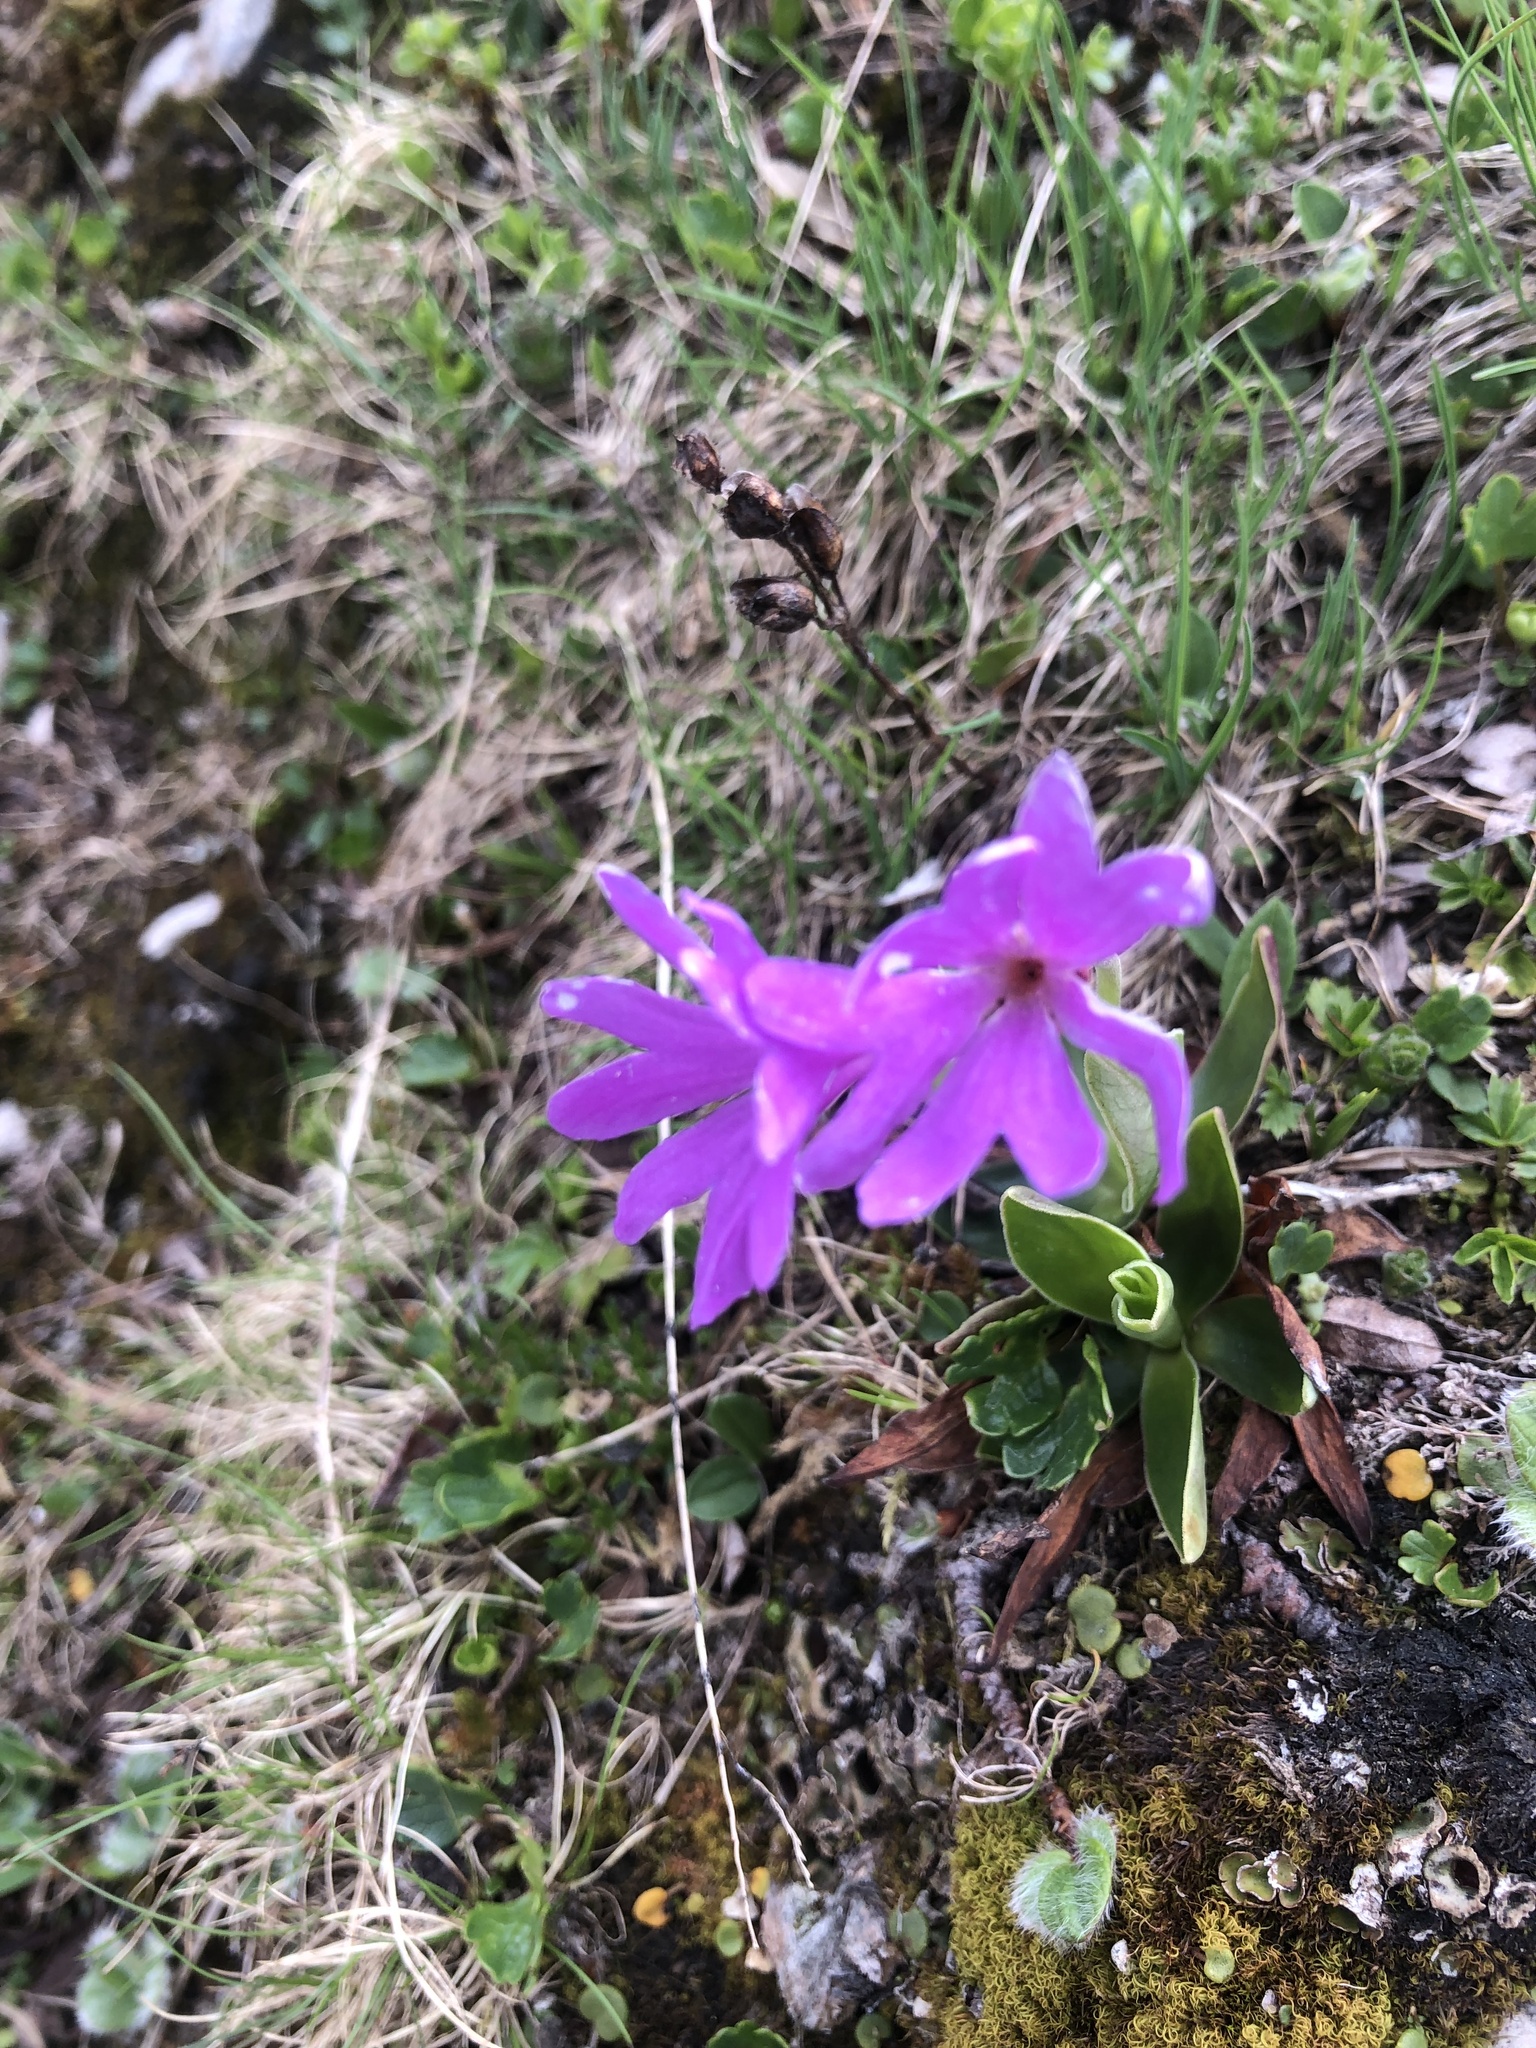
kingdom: Plantae
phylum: Tracheophyta
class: Magnoliopsida
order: Ericales
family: Primulaceae
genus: Primula
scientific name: Primula clusiana
